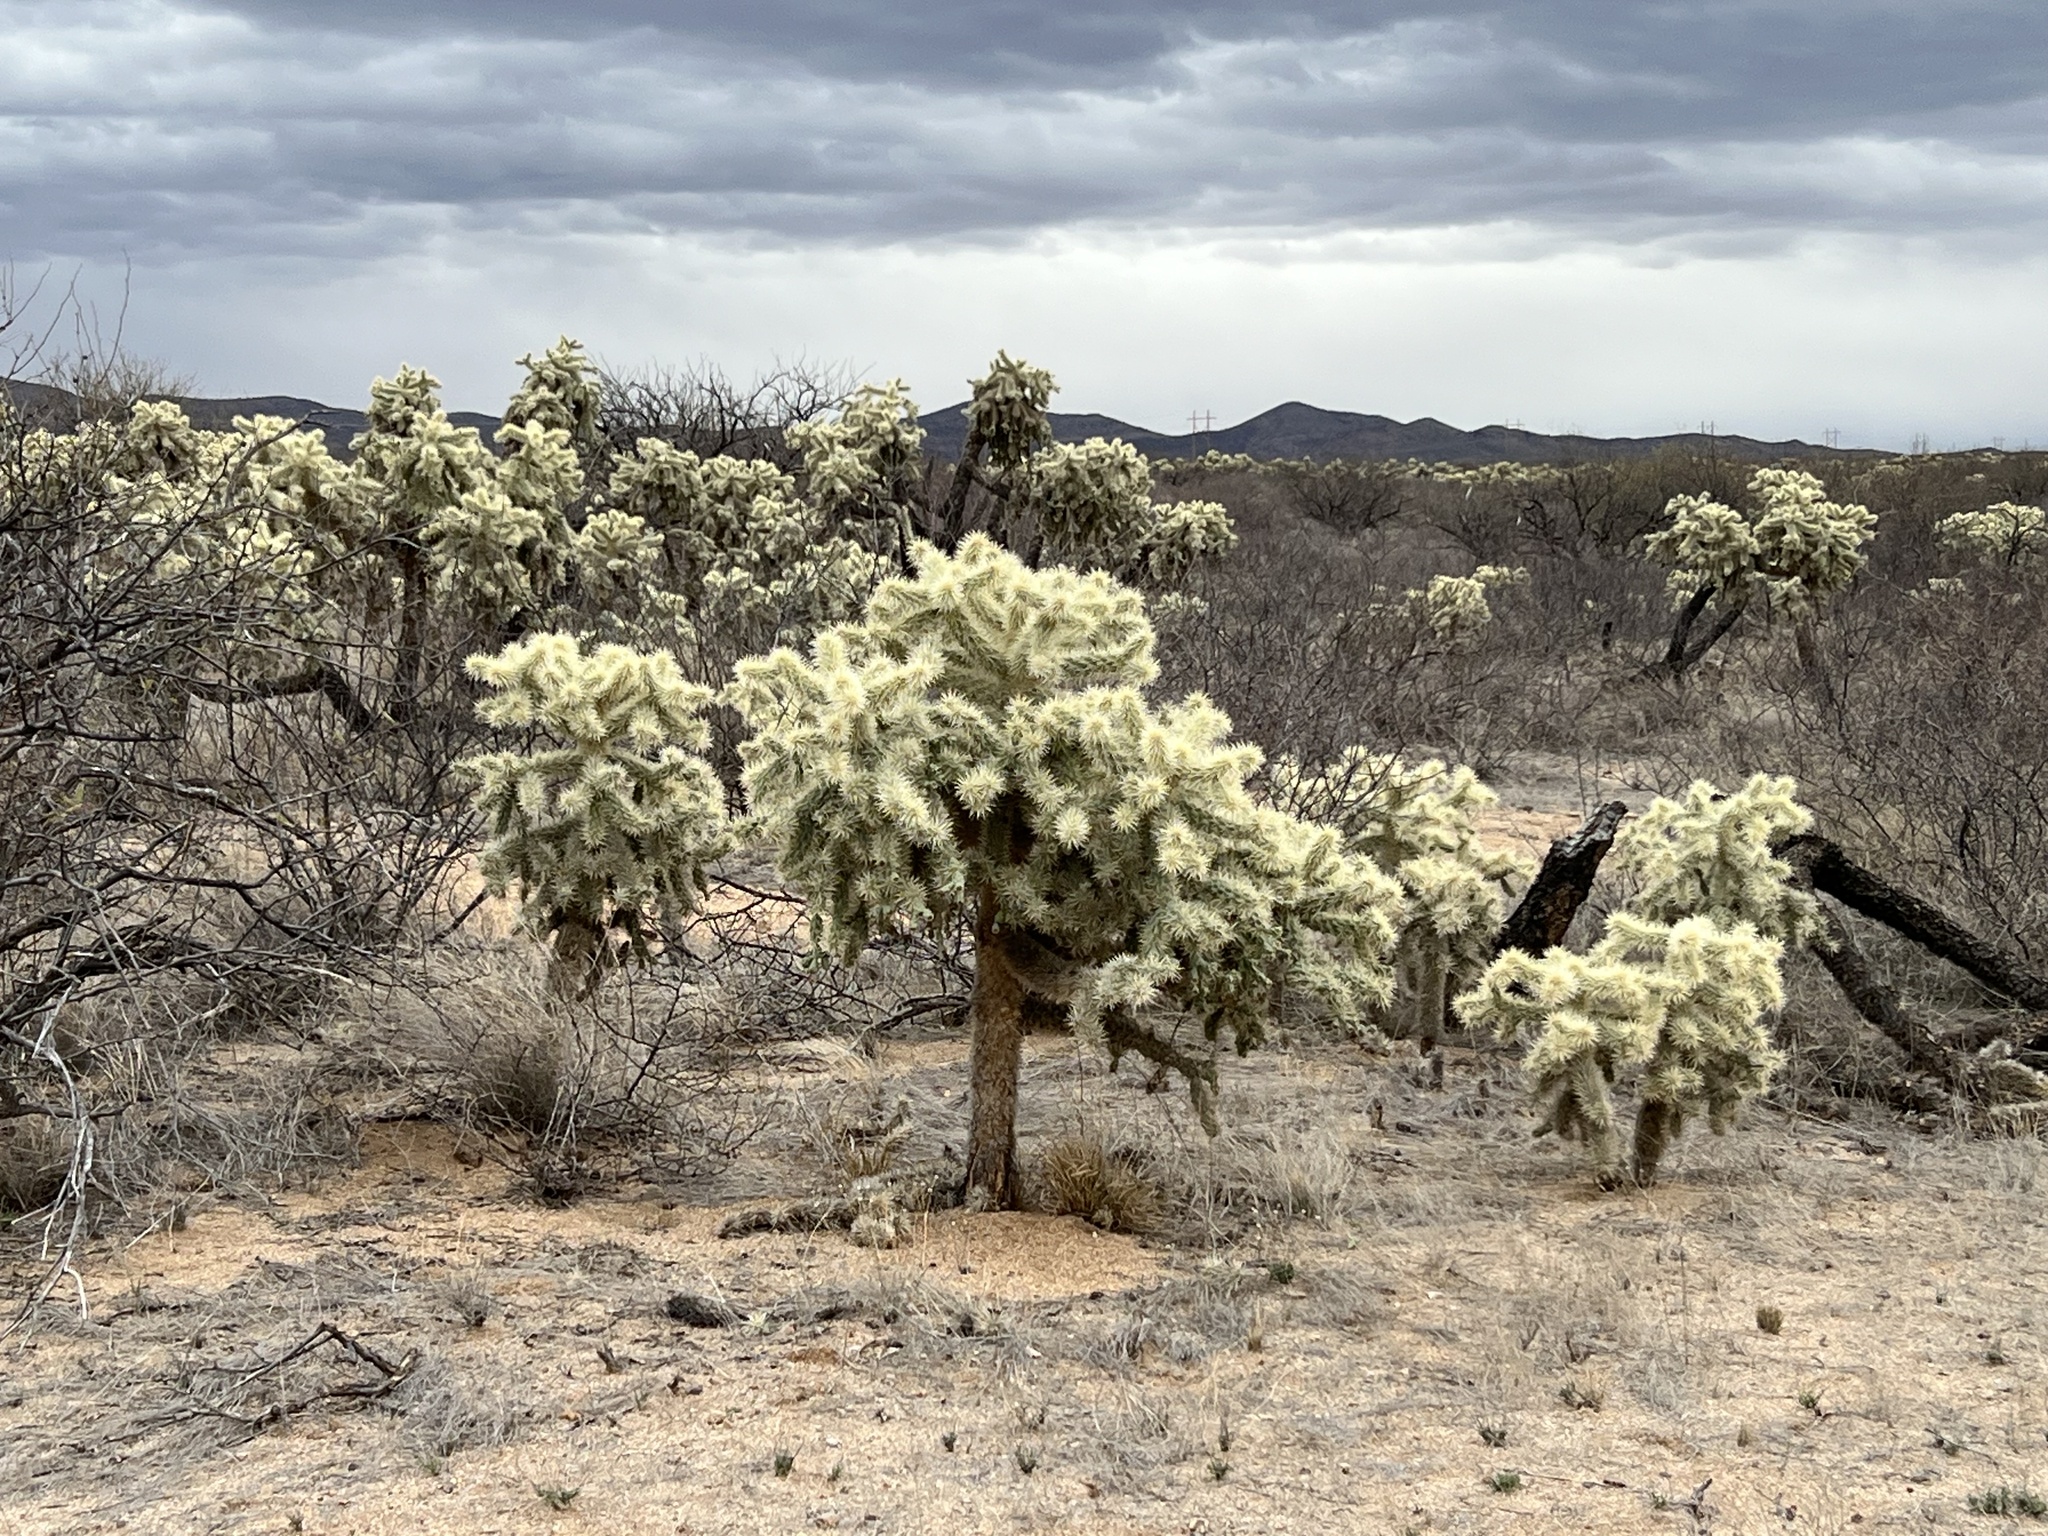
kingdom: Plantae
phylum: Tracheophyta
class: Magnoliopsida
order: Caryophyllales
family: Cactaceae
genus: Cylindropuntia
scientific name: Cylindropuntia fulgida
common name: Jumping cholla
